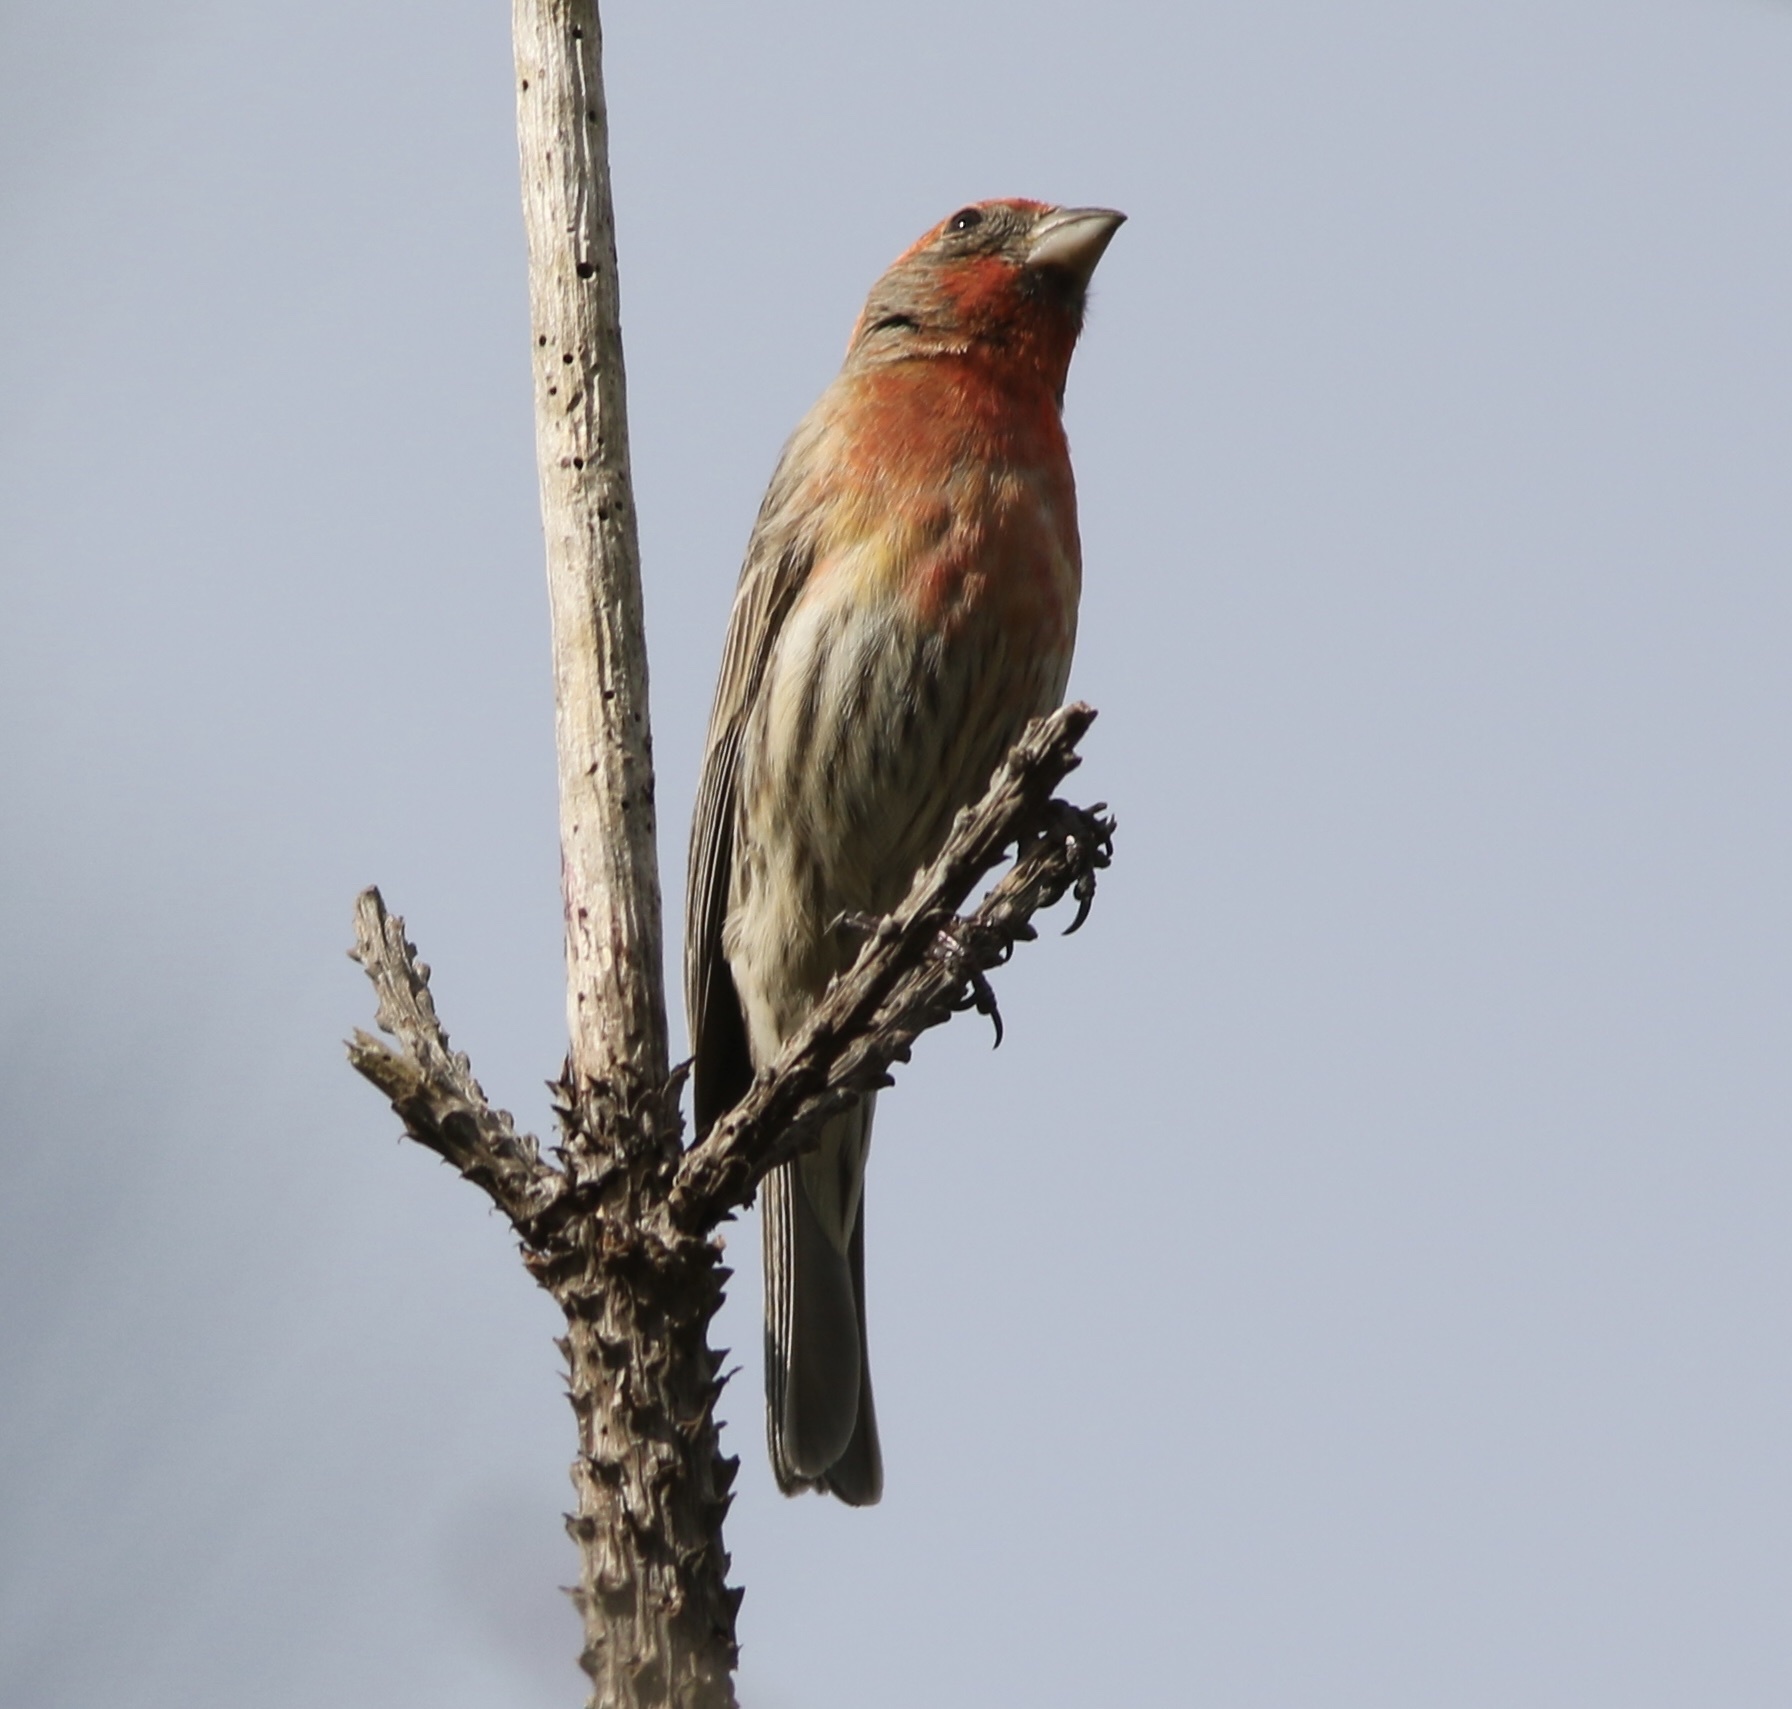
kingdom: Animalia
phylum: Chordata
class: Aves
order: Passeriformes
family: Fringillidae
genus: Haemorhous
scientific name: Haemorhous mexicanus
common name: House finch
